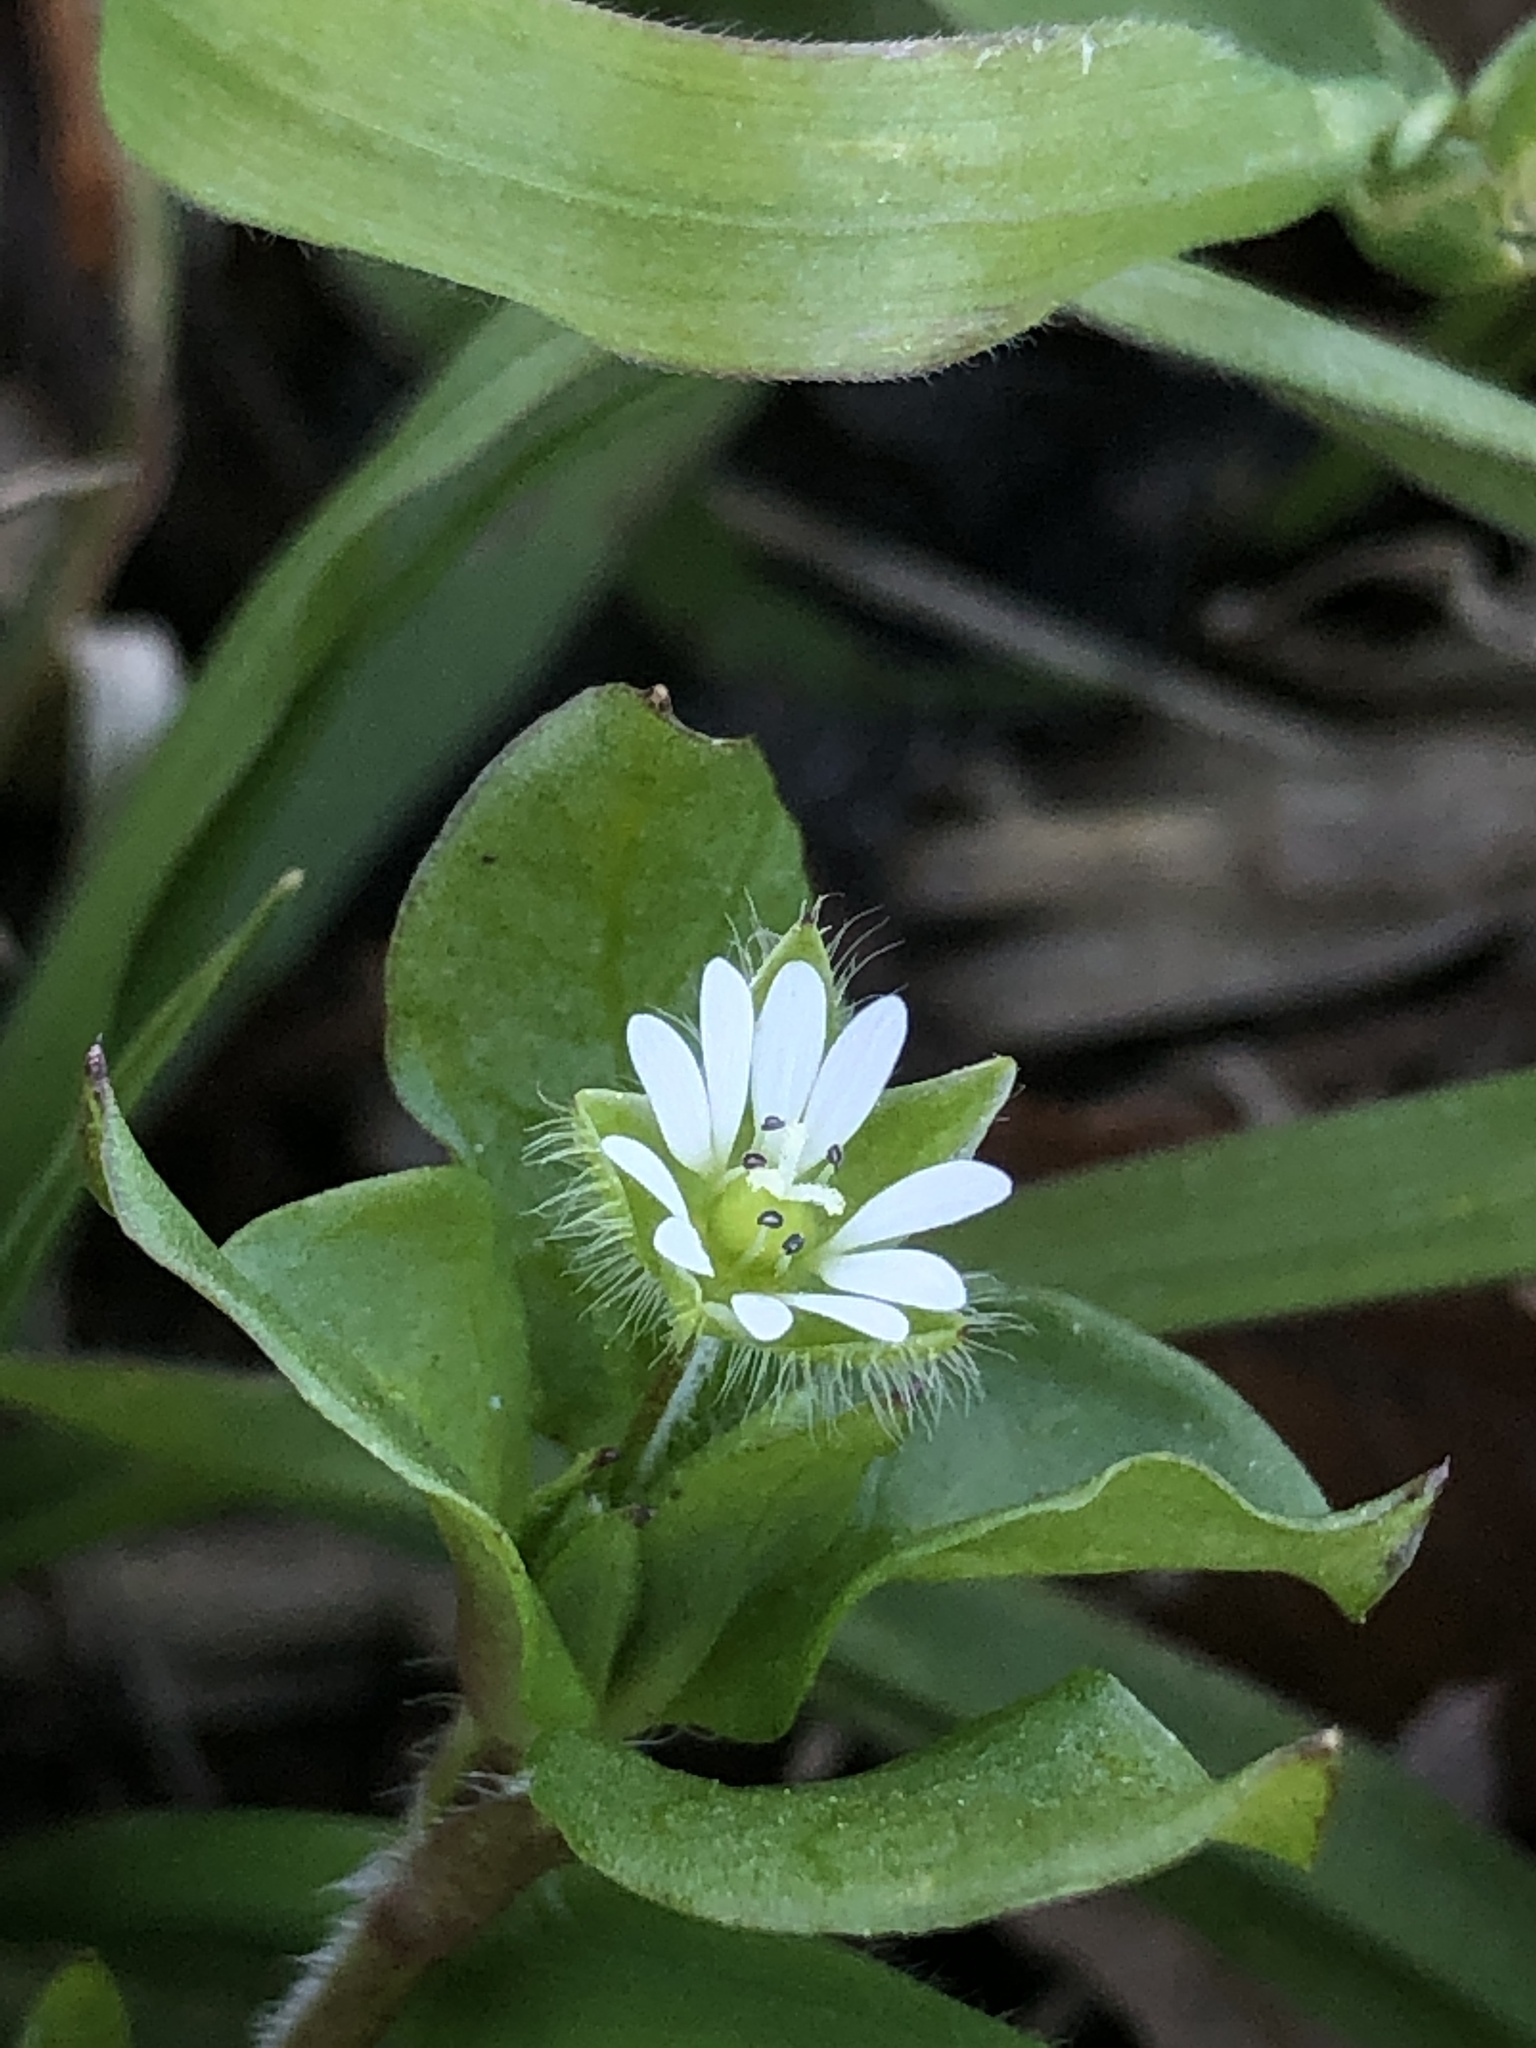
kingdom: Plantae
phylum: Tracheophyta
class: Magnoliopsida
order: Caryophyllales
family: Caryophyllaceae
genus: Stellaria
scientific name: Stellaria media
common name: Common chickweed
